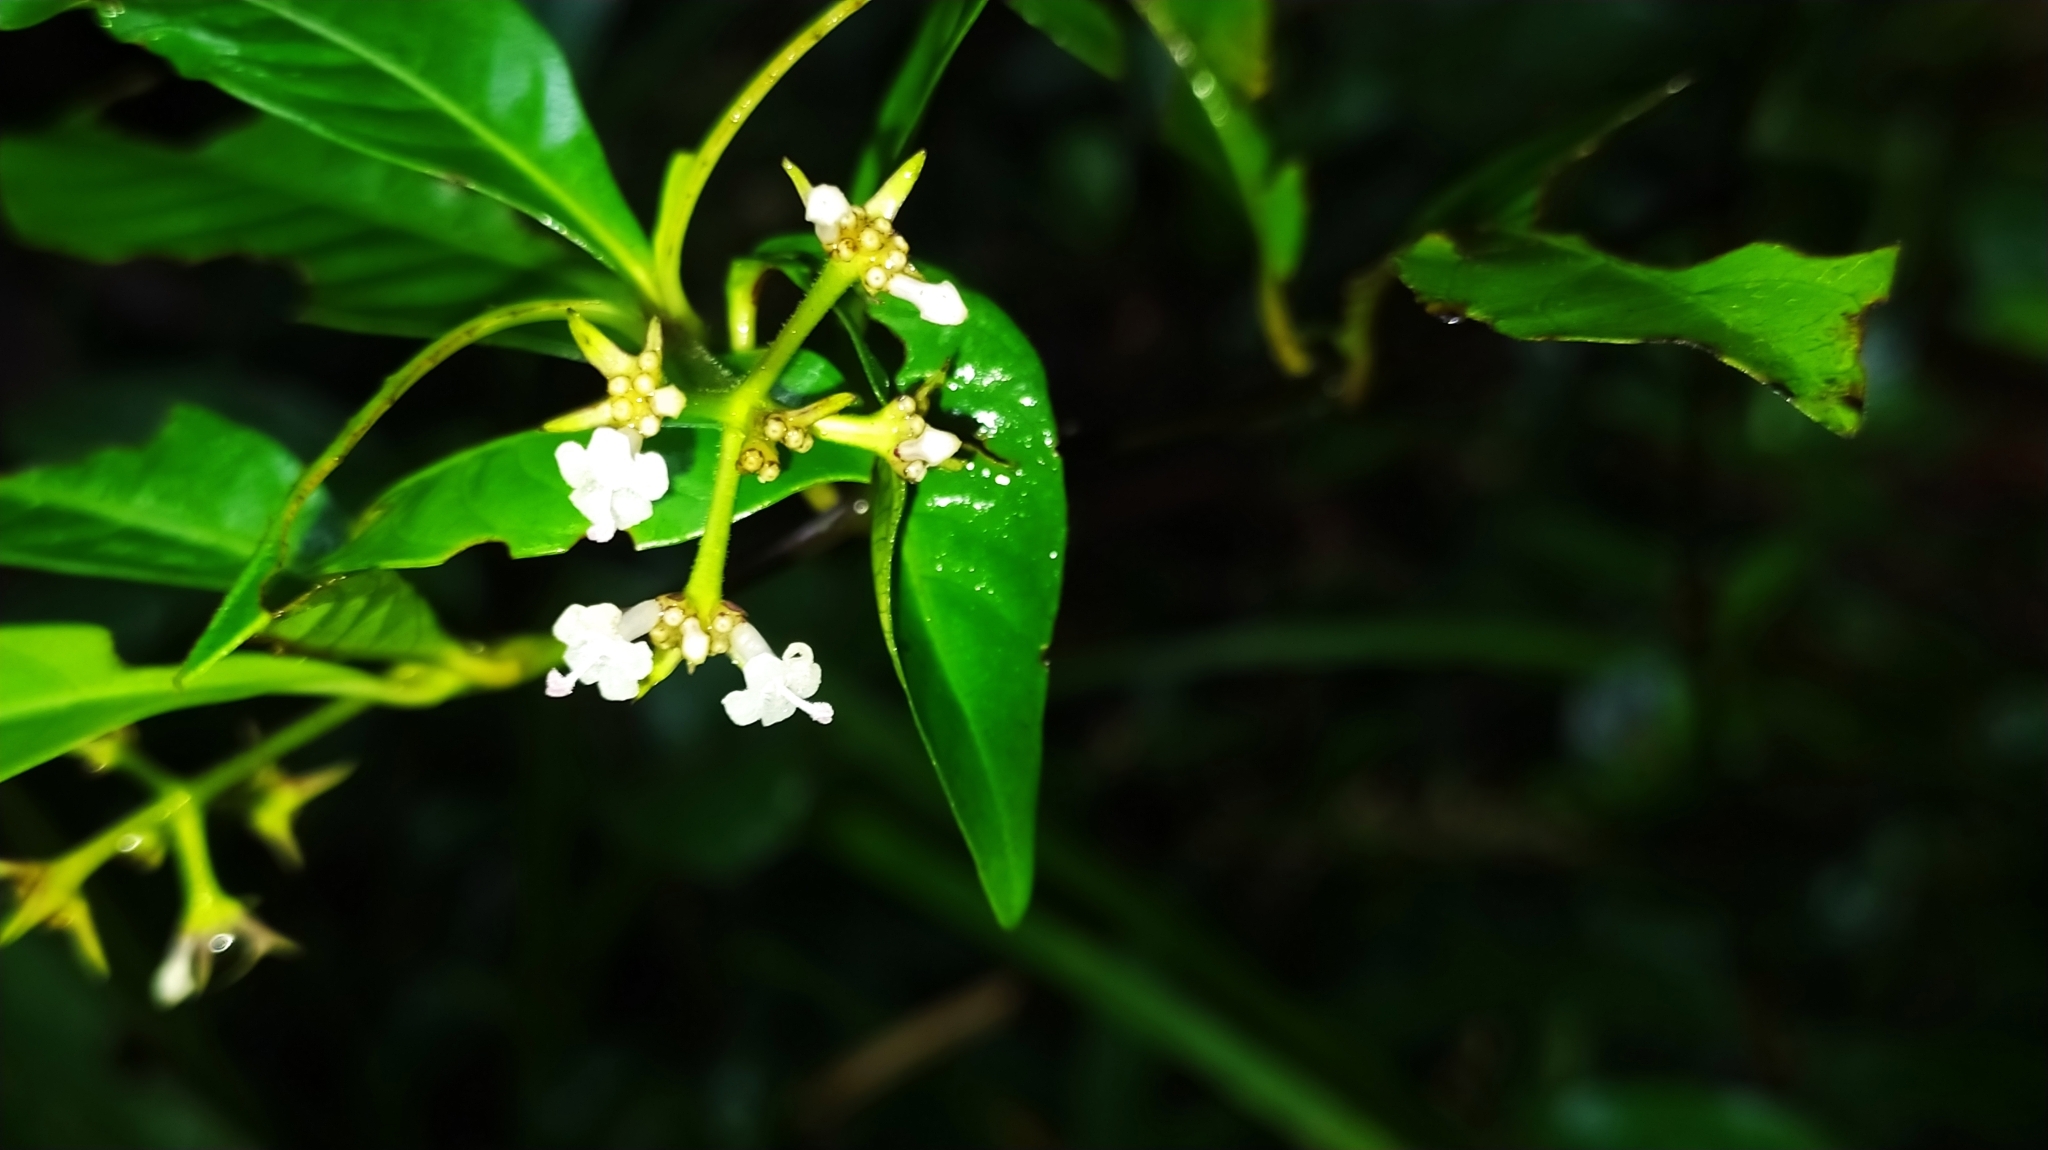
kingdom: Plantae
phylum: Tracheophyta
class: Magnoliopsida
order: Gentianales
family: Rubiaceae
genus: Palicourea
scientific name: Palicourea tenerior
